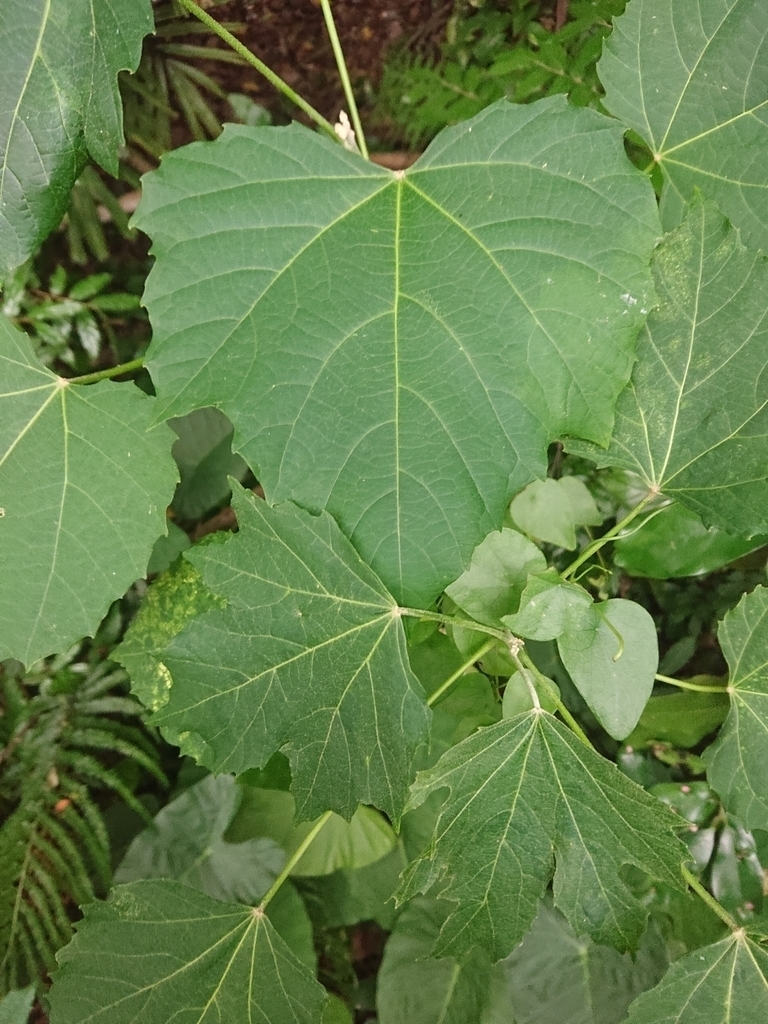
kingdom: Plantae
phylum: Tracheophyta
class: Magnoliopsida
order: Malpighiales
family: Euphorbiaceae
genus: Melanolepis
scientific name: Melanolepis multiglandulosa
